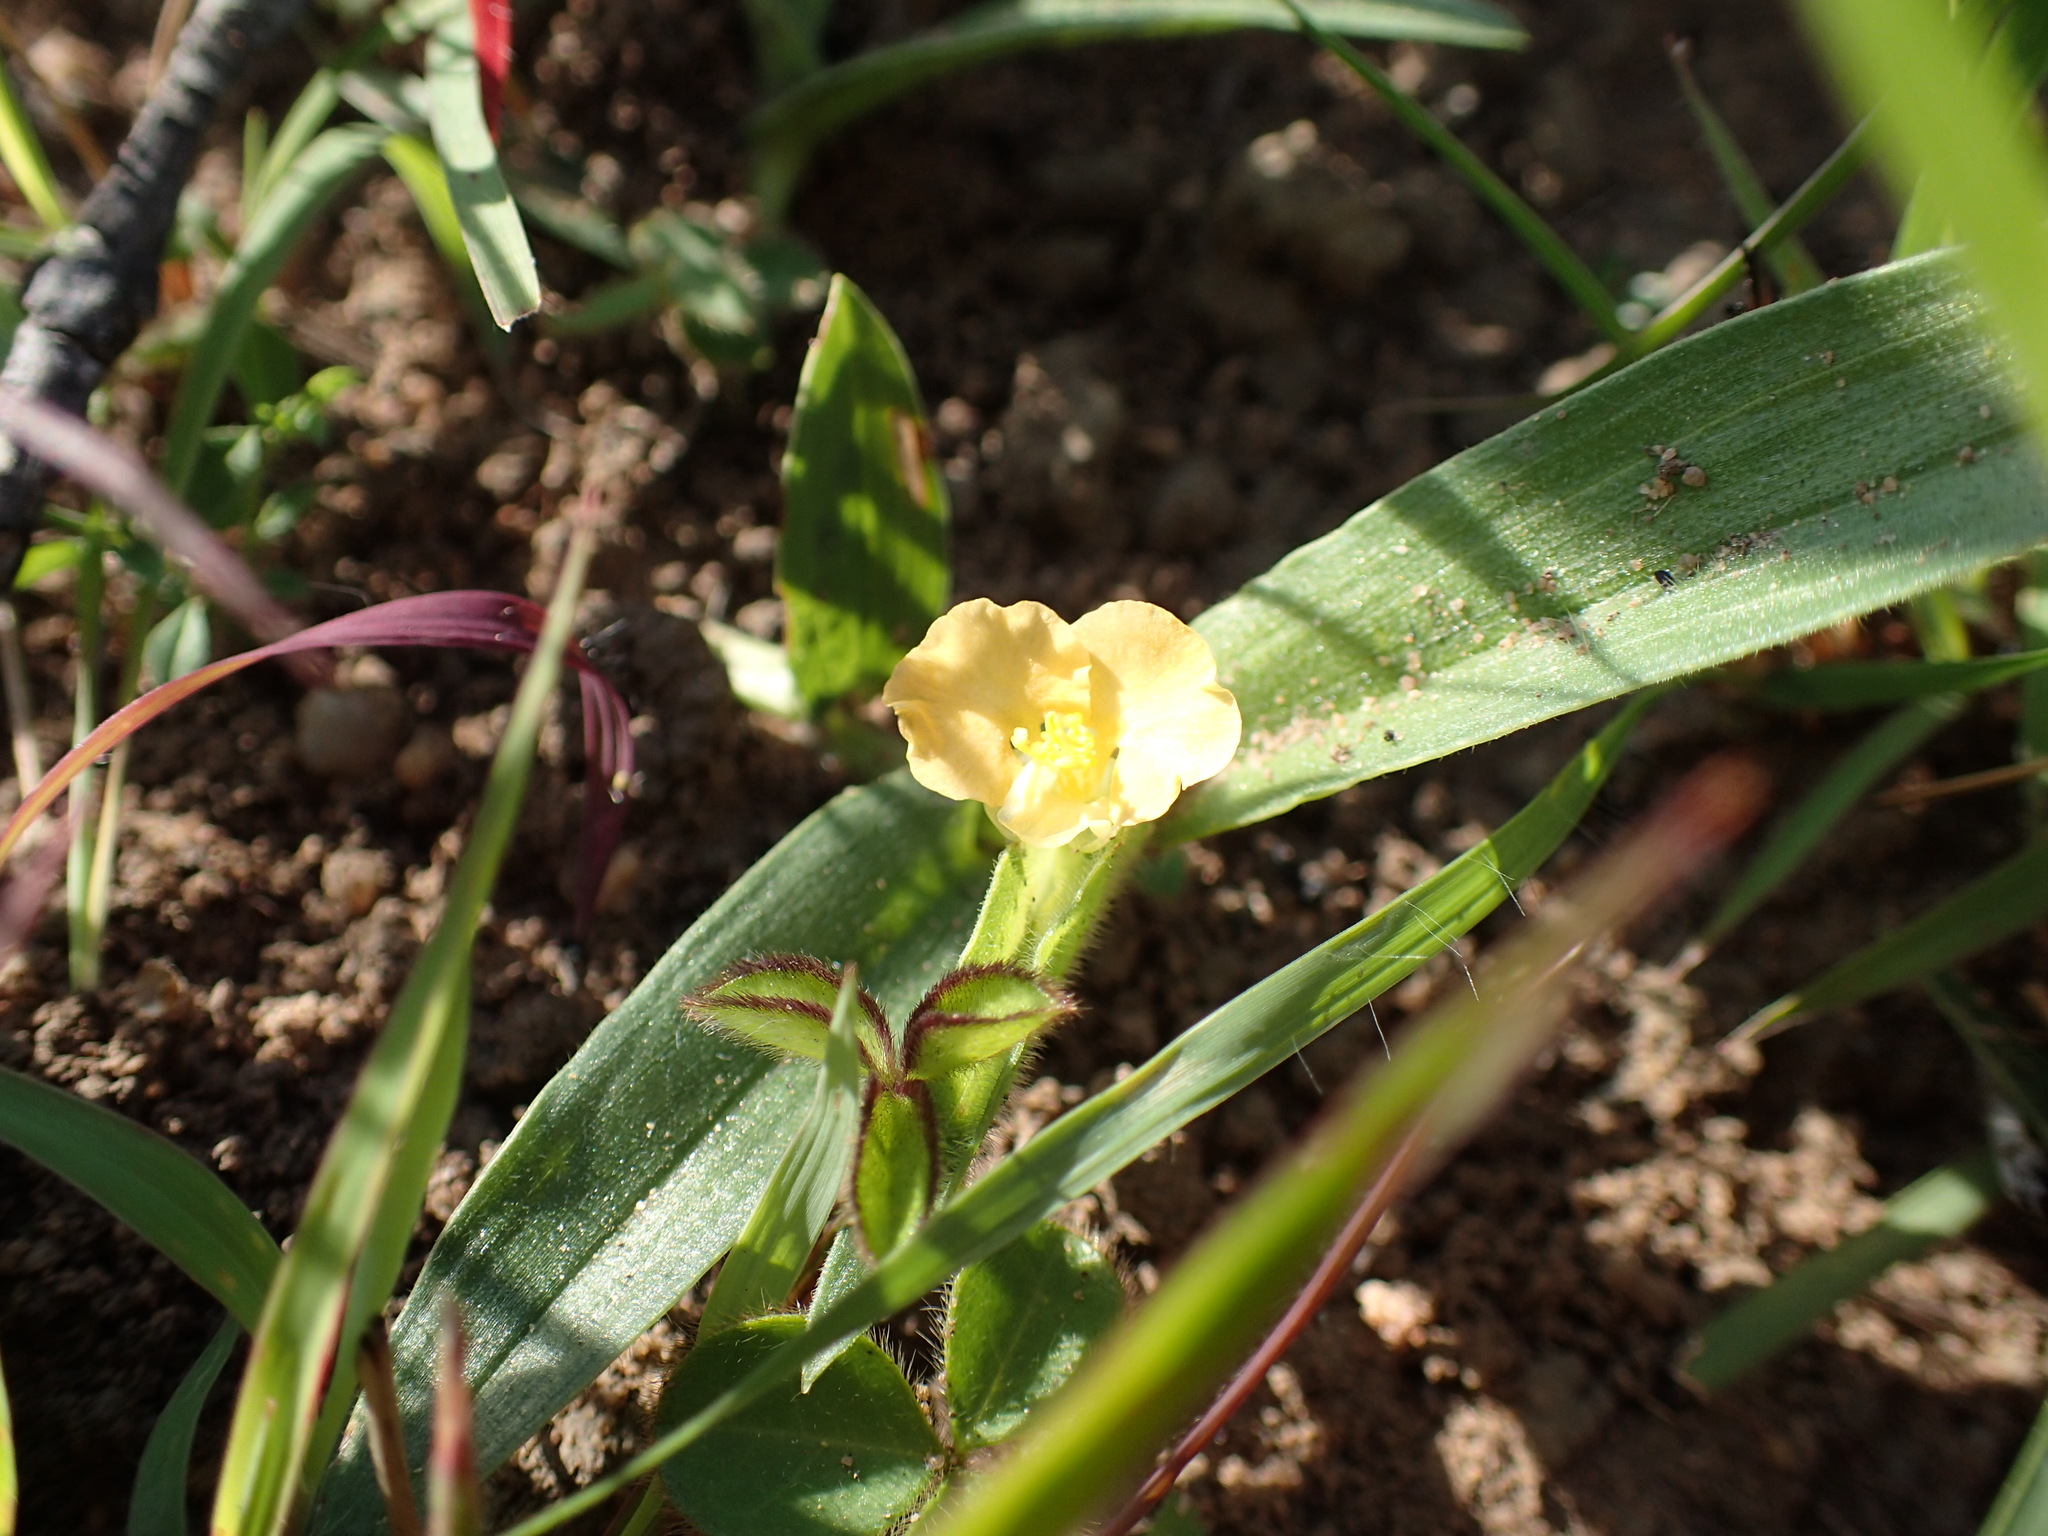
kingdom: Plantae
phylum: Tracheophyta
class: Liliopsida
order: Commelinales
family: Commelinaceae
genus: Commelina
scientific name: Commelina africana
